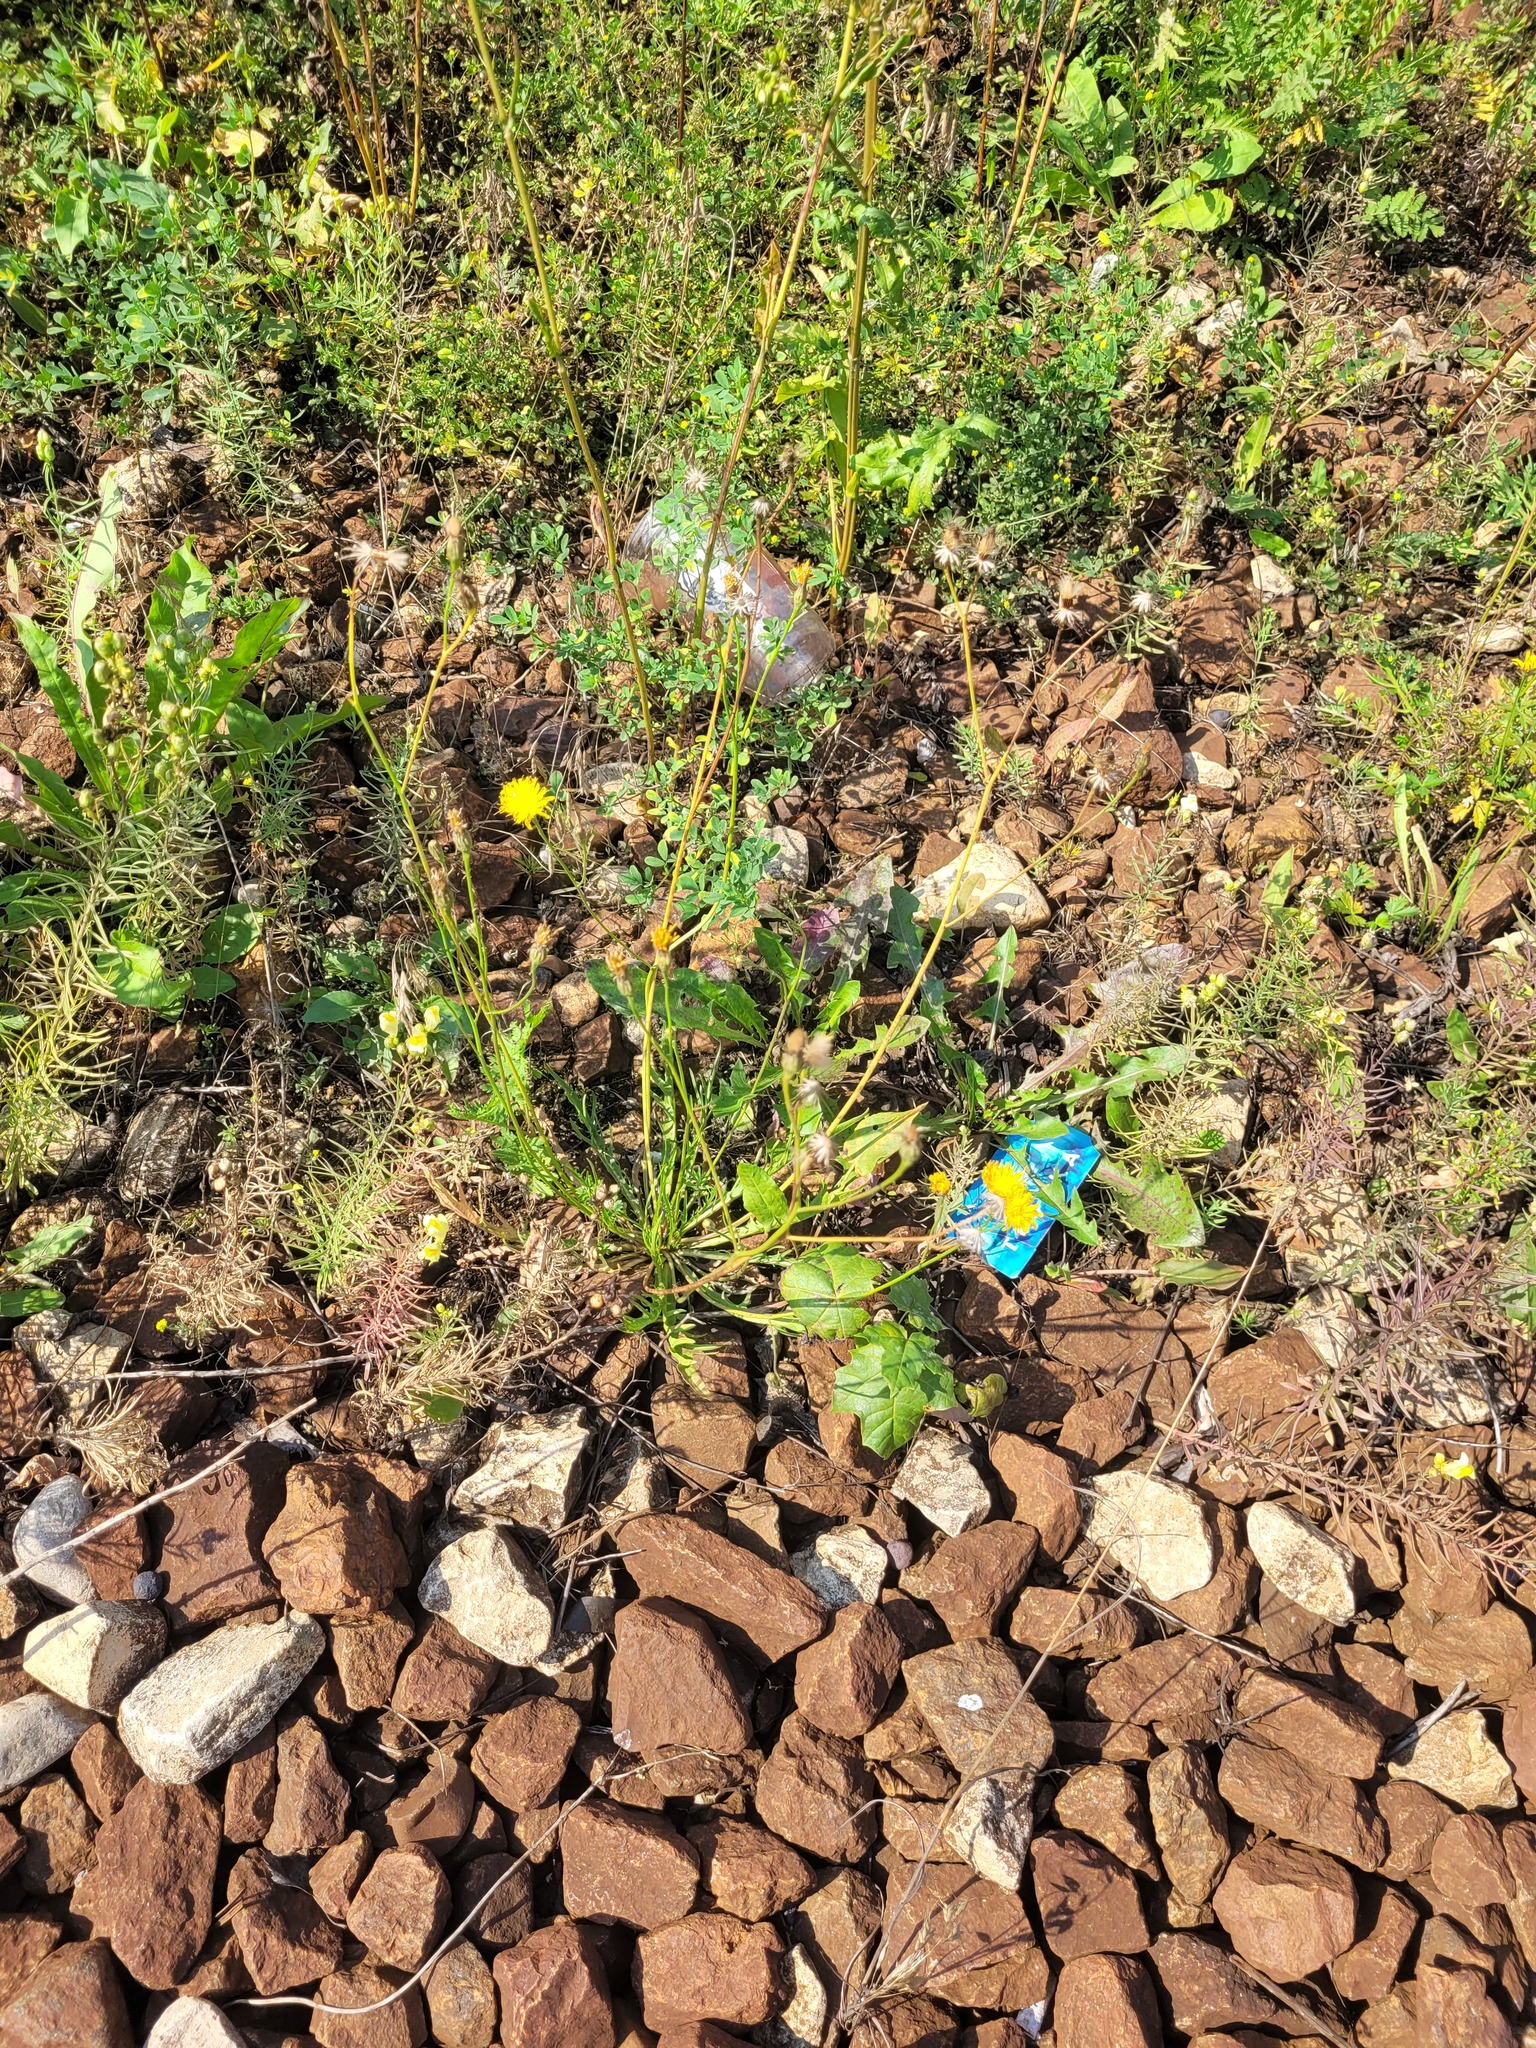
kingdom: Plantae
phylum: Tracheophyta
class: Magnoliopsida
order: Asterales
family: Asteraceae
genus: Scorzoneroides
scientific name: Scorzoneroides autumnalis
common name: Autumn hawkbit
